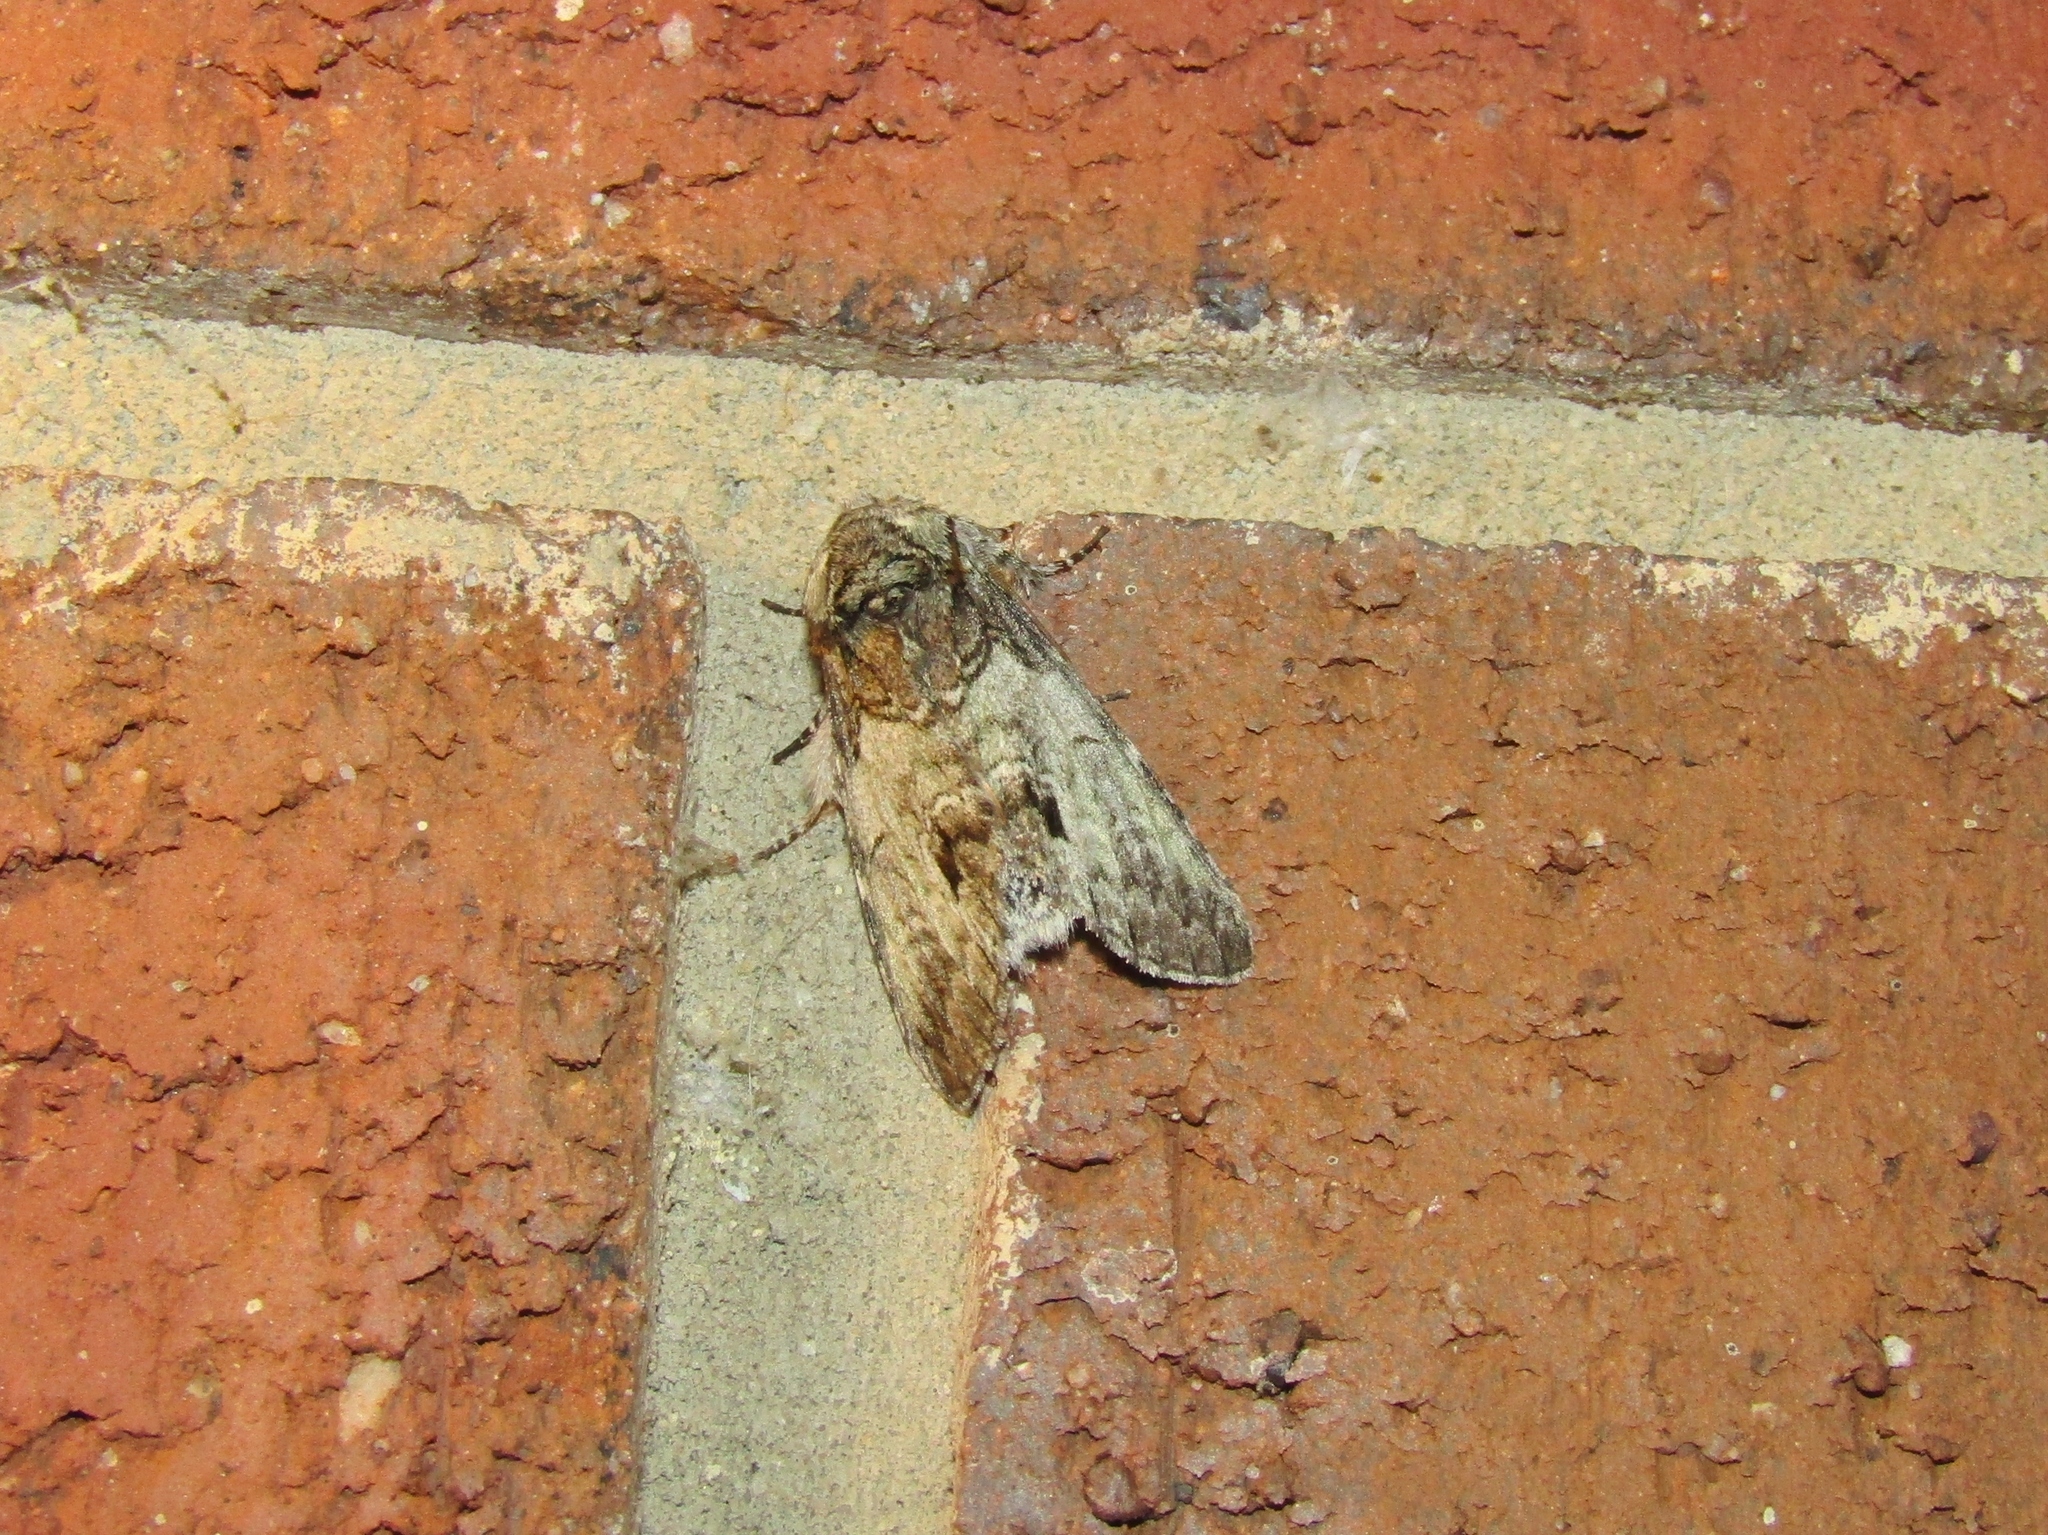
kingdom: Animalia
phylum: Arthropoda
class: Insecta
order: Lepidoptera
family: Notodontidae
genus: Macrurocampa
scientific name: Macrurocampa marthesia
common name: Mottled prominent
